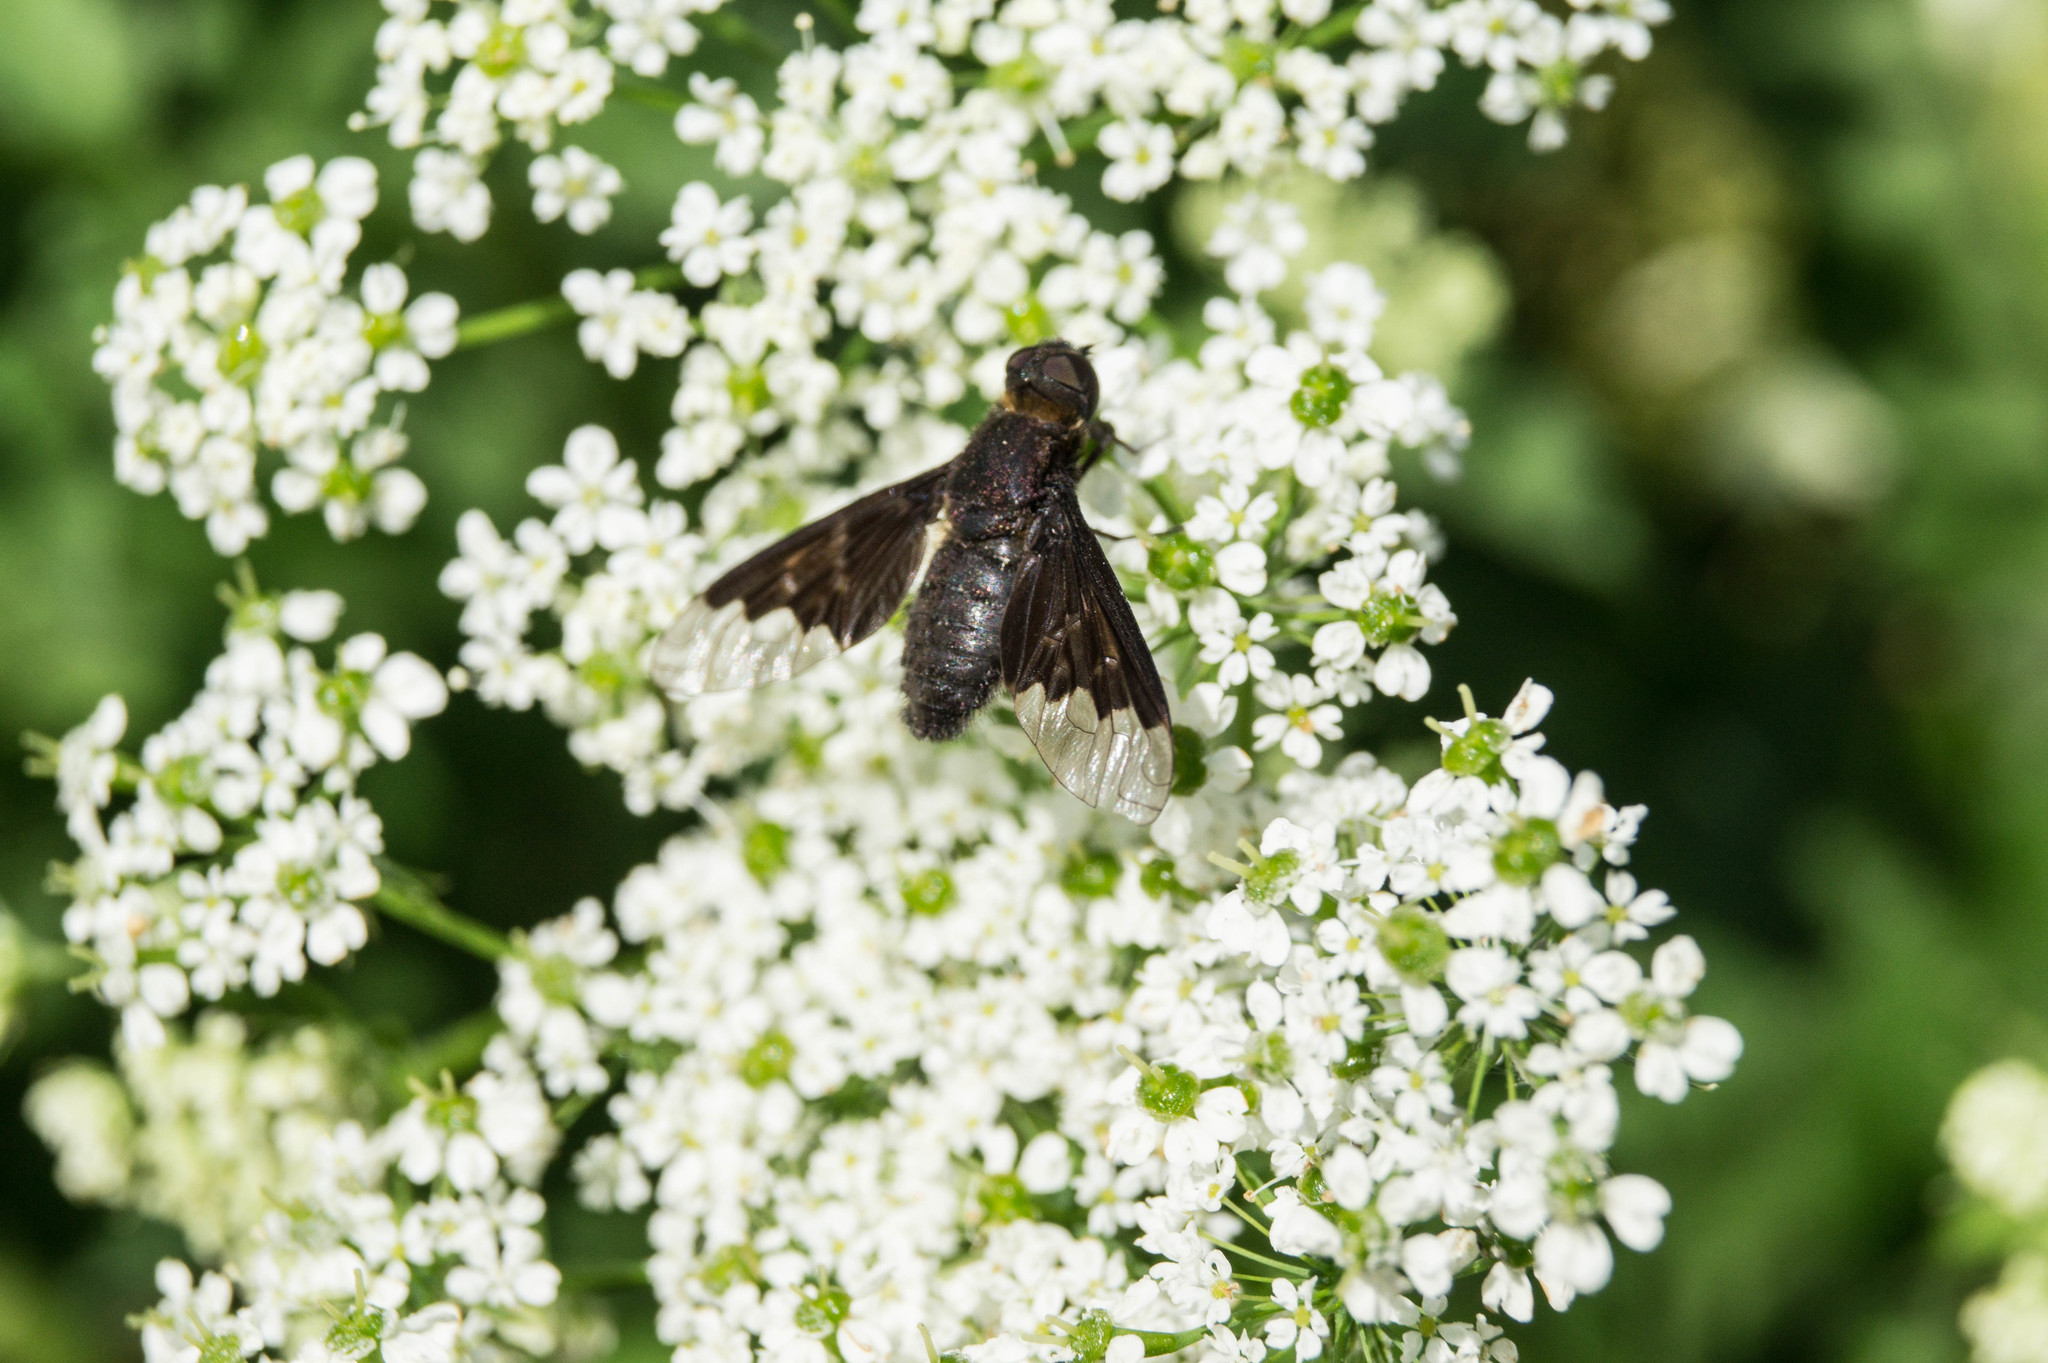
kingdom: Animalia
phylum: Arthropoda
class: Insecta
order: Diptera
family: Bombyliidae
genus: Hemipenthes
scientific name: Hemipenthes morio
